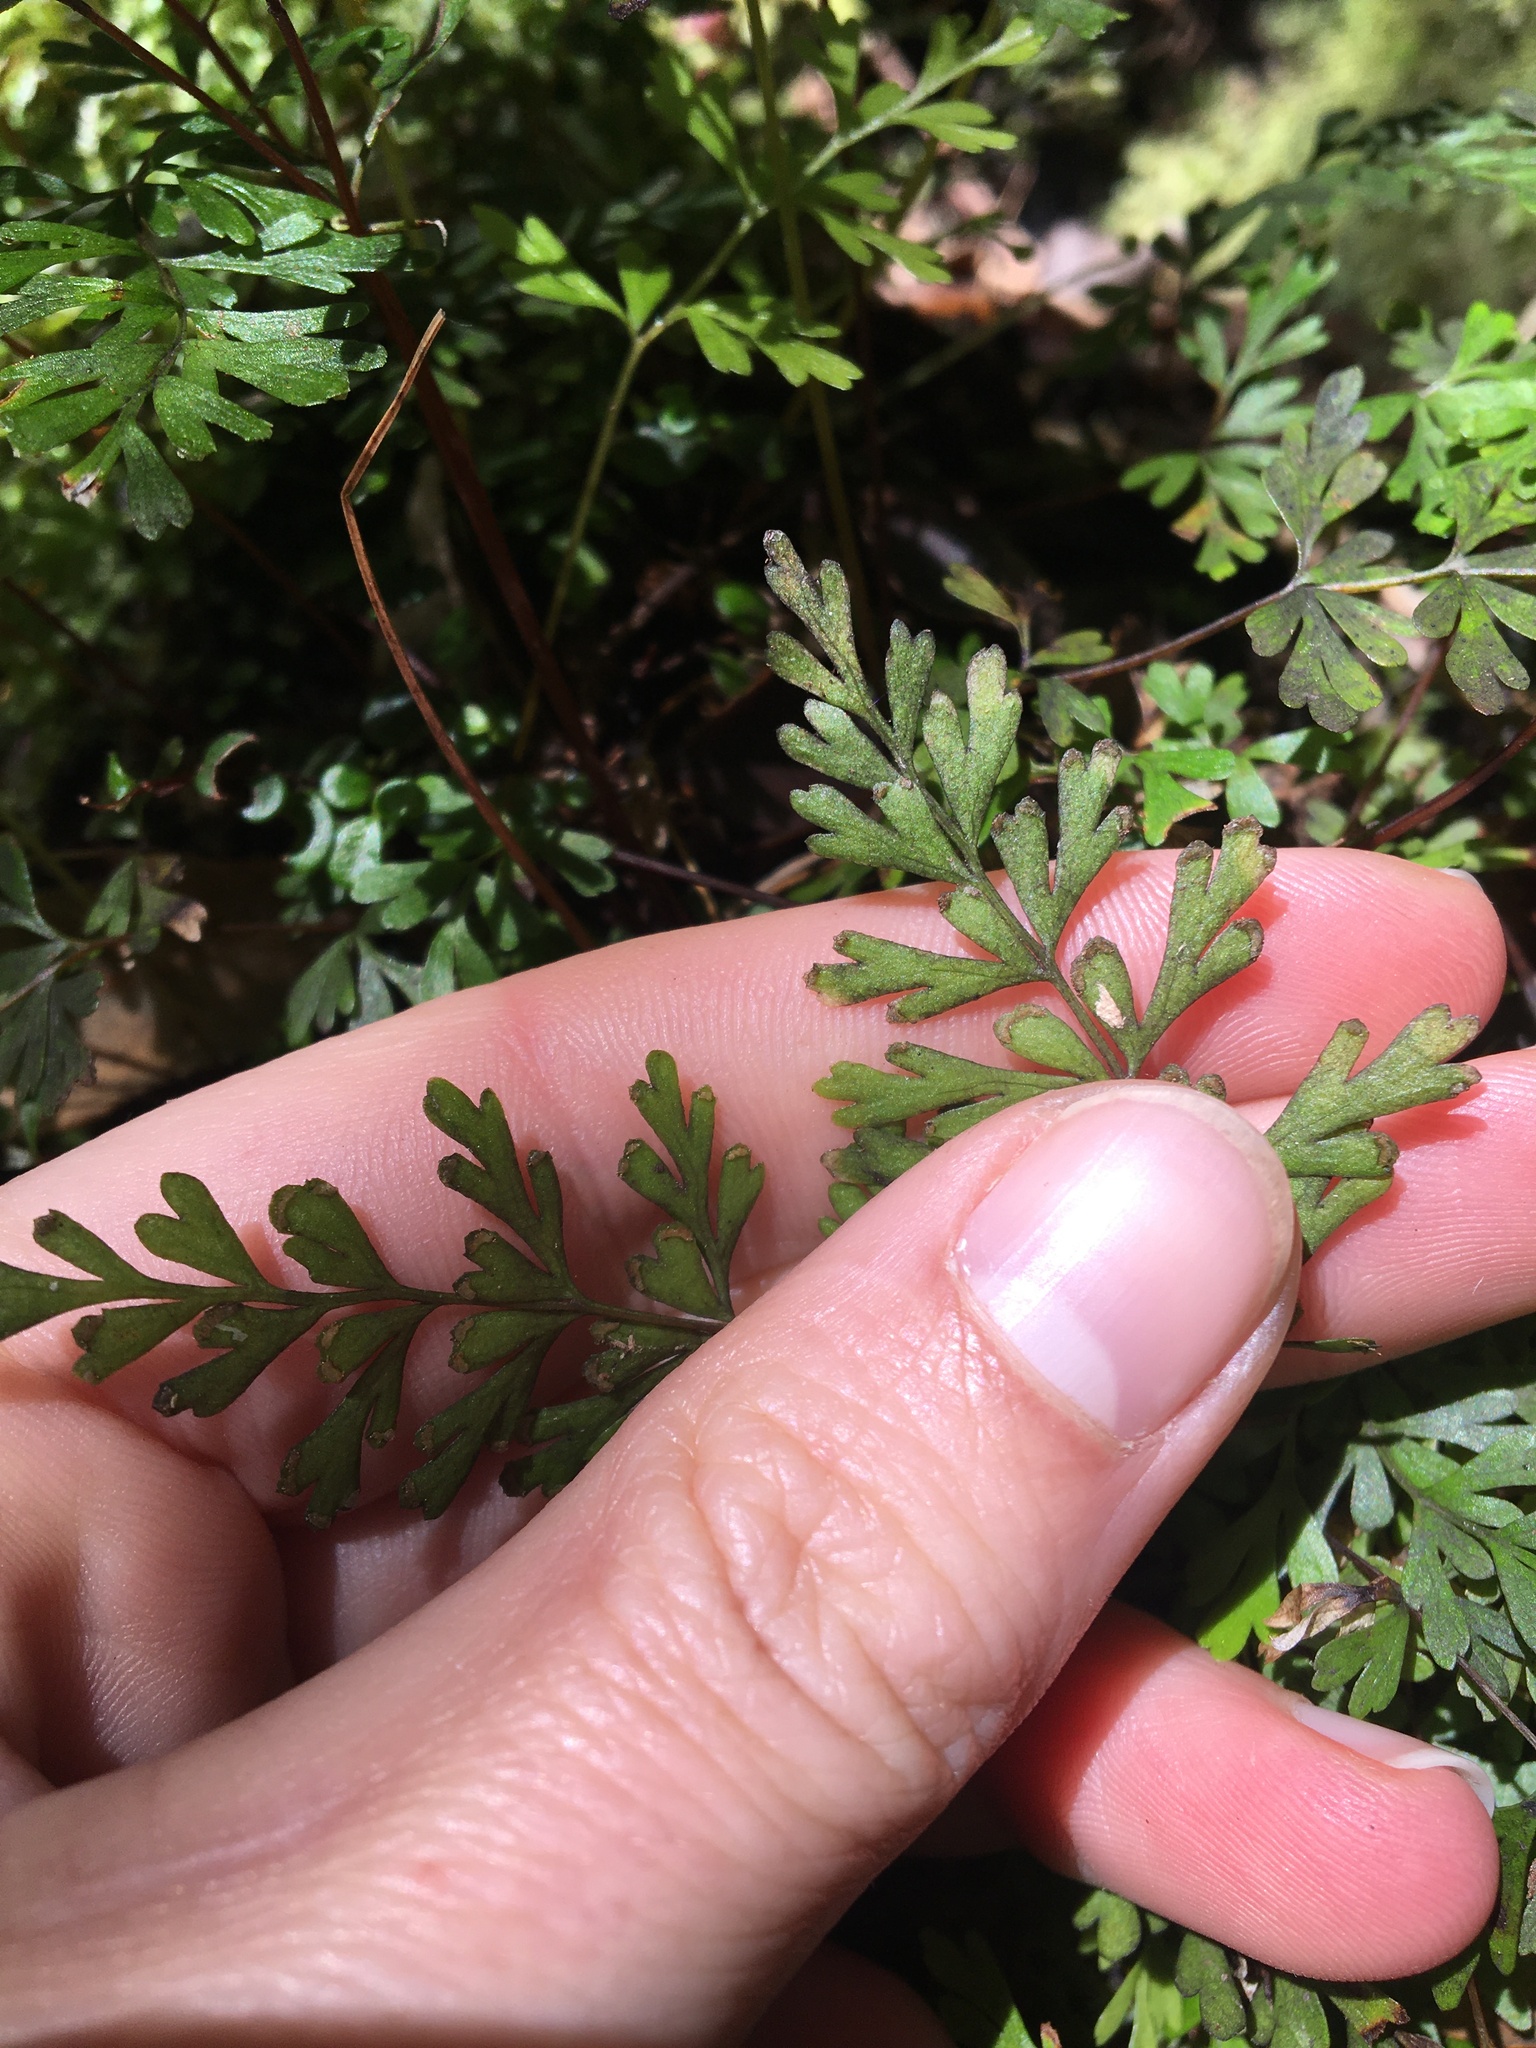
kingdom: Plantae
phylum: Tracheophyta
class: Polypodiopsida
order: Polypodiales
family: Lindsaeaceae
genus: Lindsaea
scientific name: Lindsaea trichomanoides
